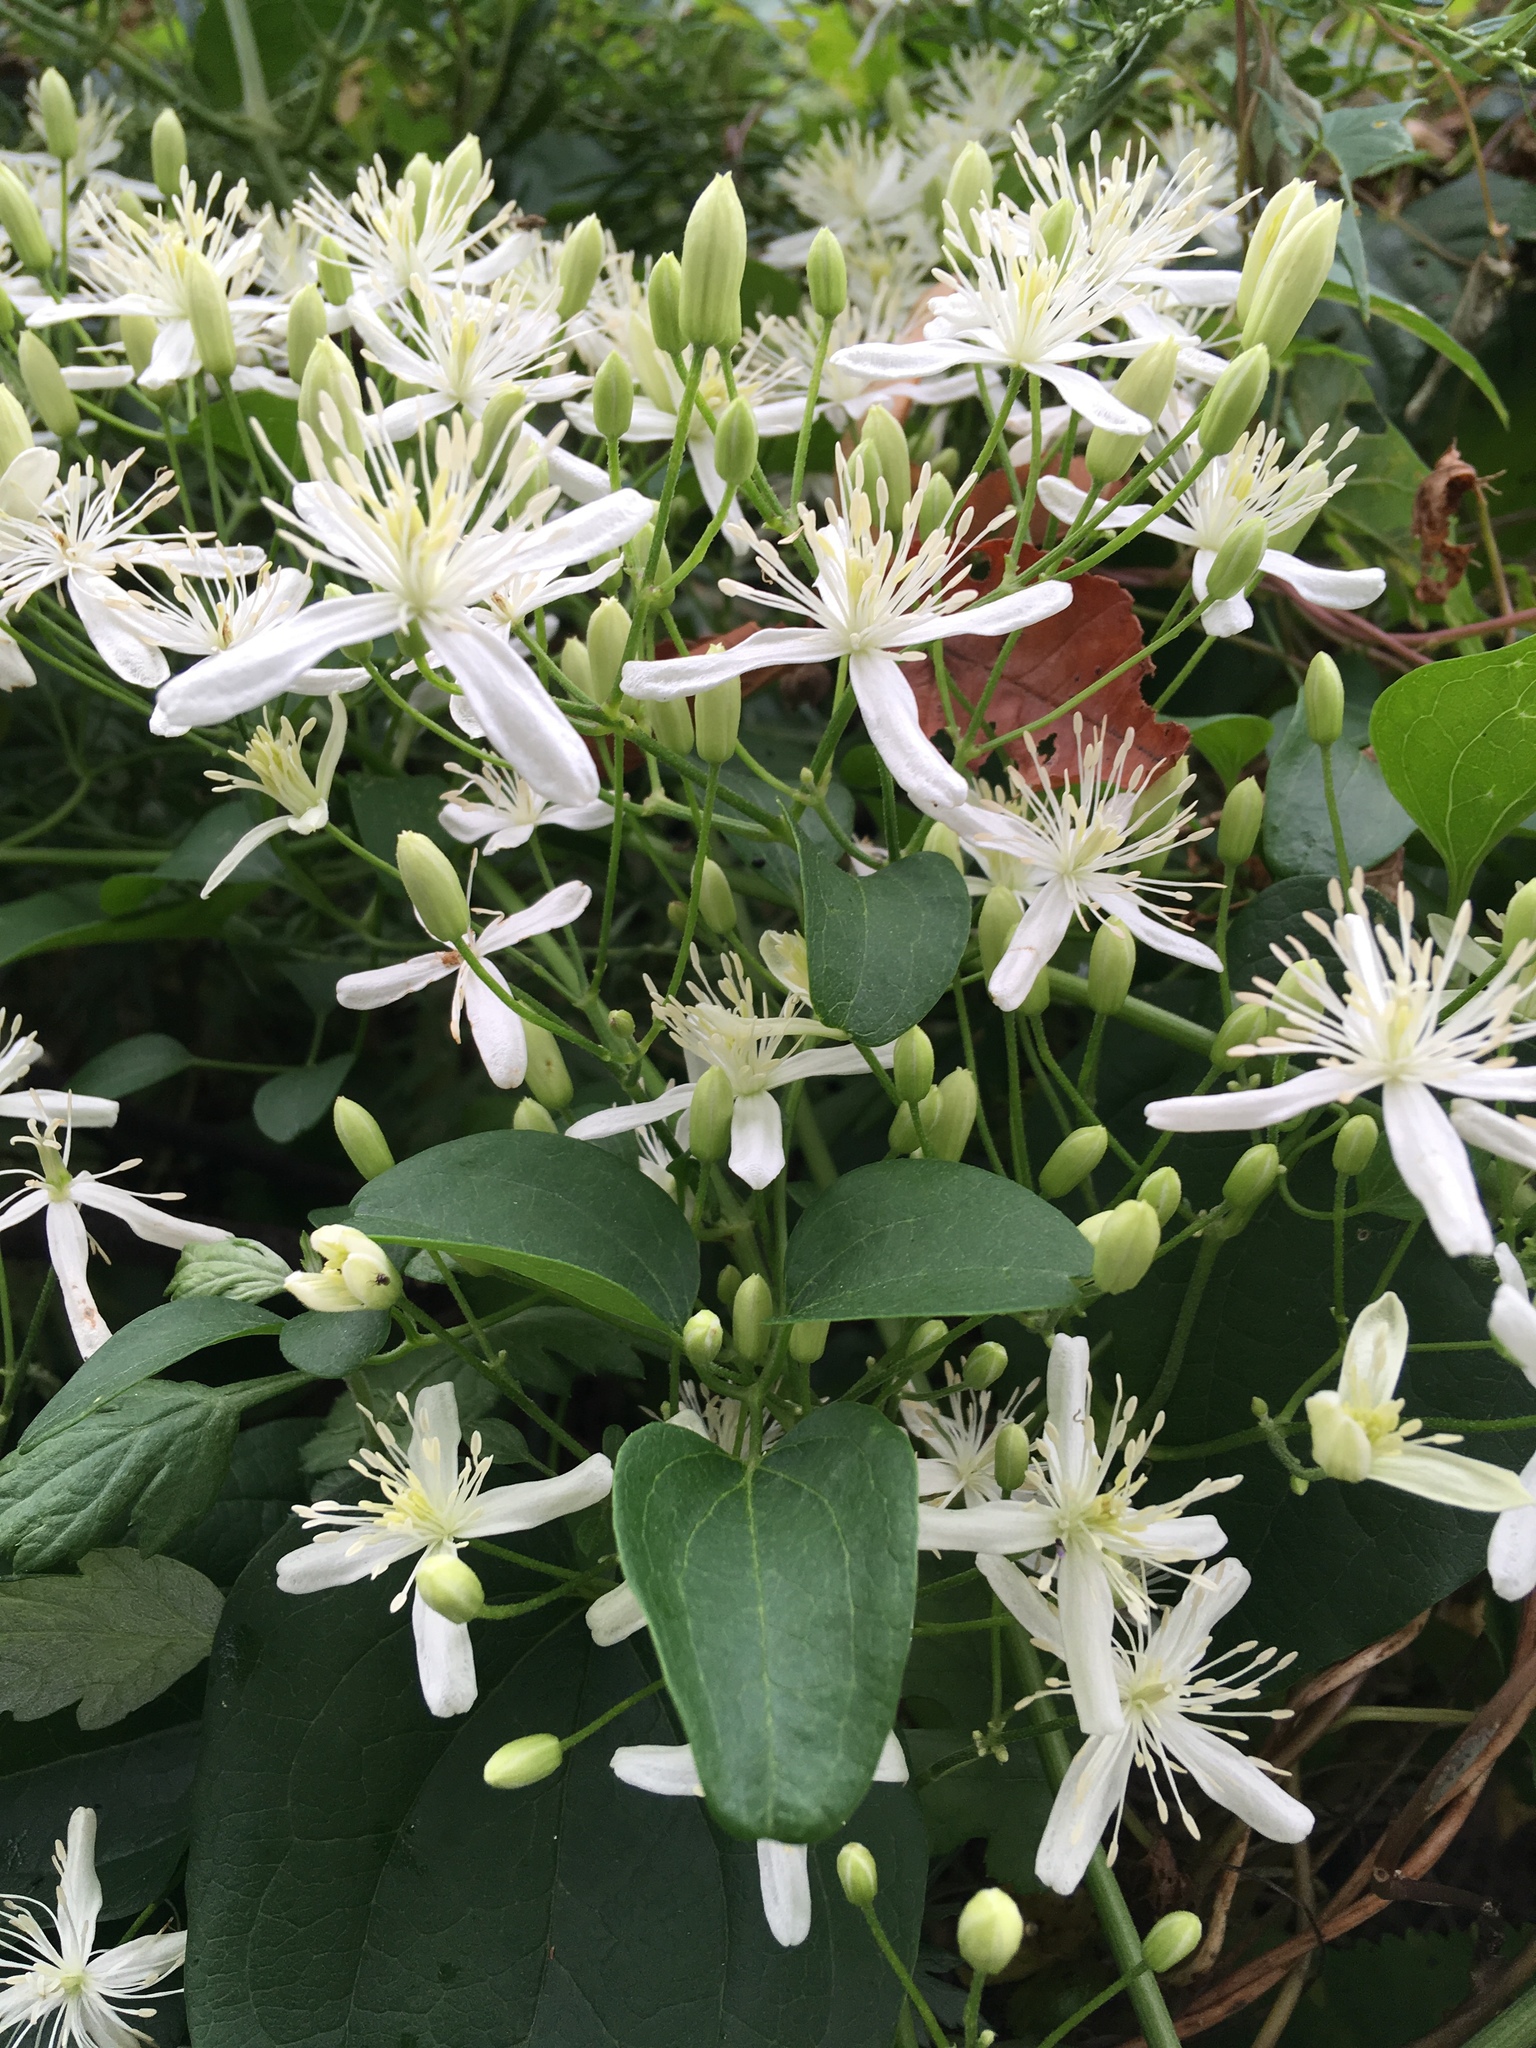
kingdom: Plantae
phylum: Tracheophyta
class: Magnoliopsida
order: Ranunculales
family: Ranunculaceae
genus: Clematis
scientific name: Clematis terniflora
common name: Sweet autumn clematis
